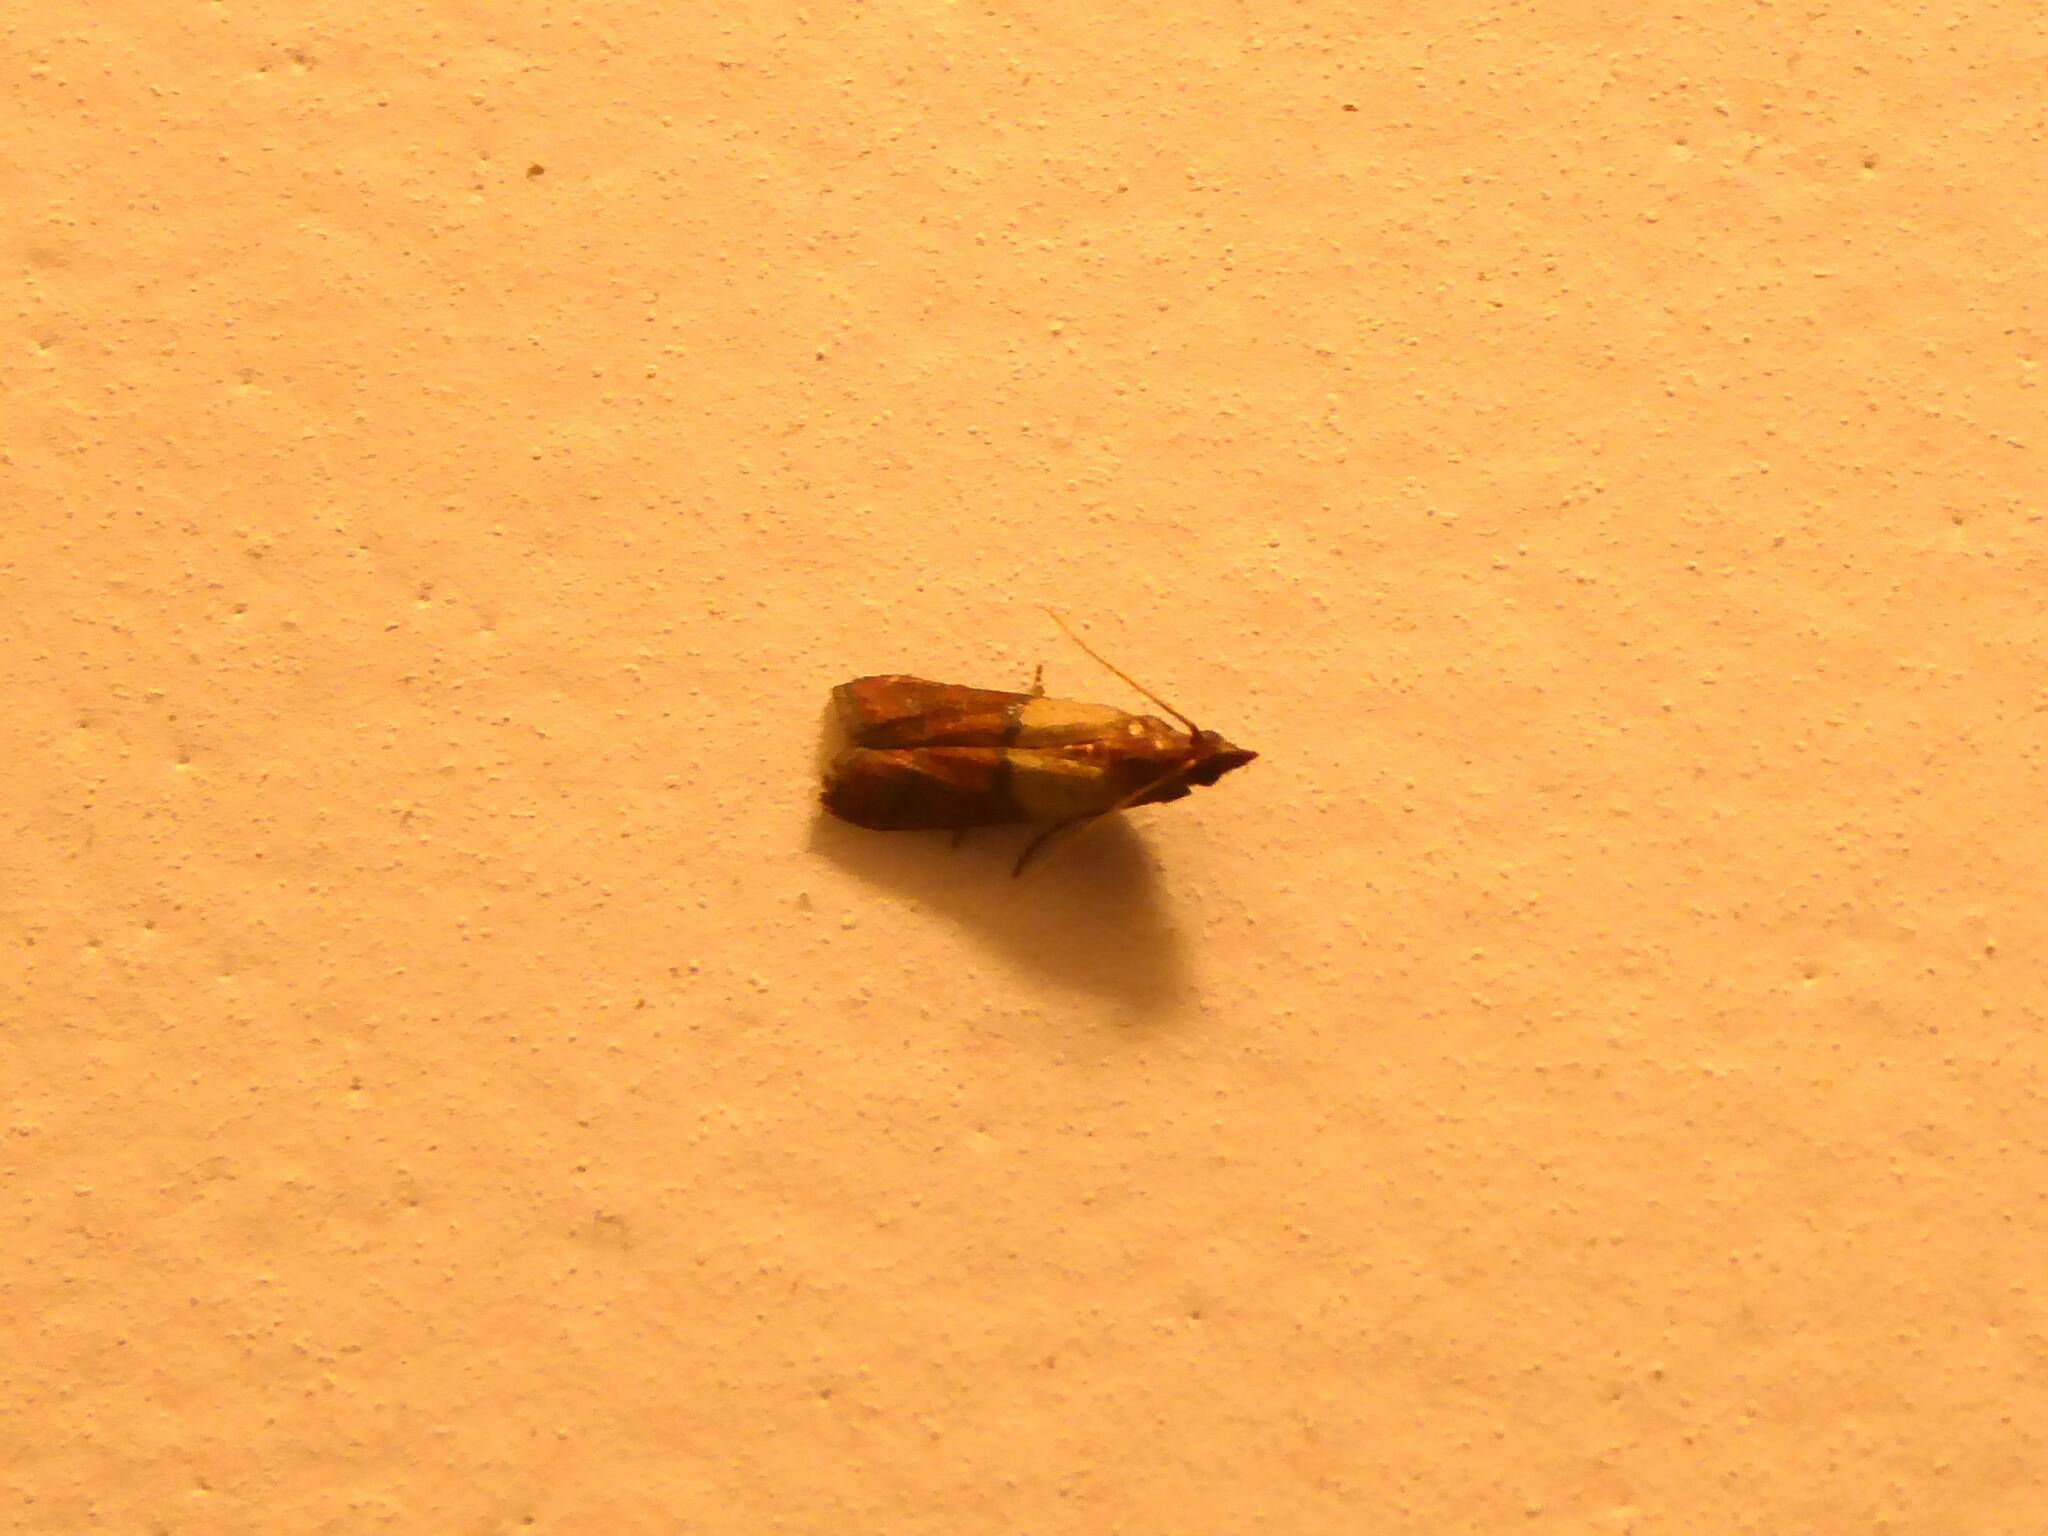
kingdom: Animalia
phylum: Arthropoda
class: Insecta
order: Lepidoptera
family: Pyralidae
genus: Plodia
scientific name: Plodia interpunctella
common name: Indian meal moth
